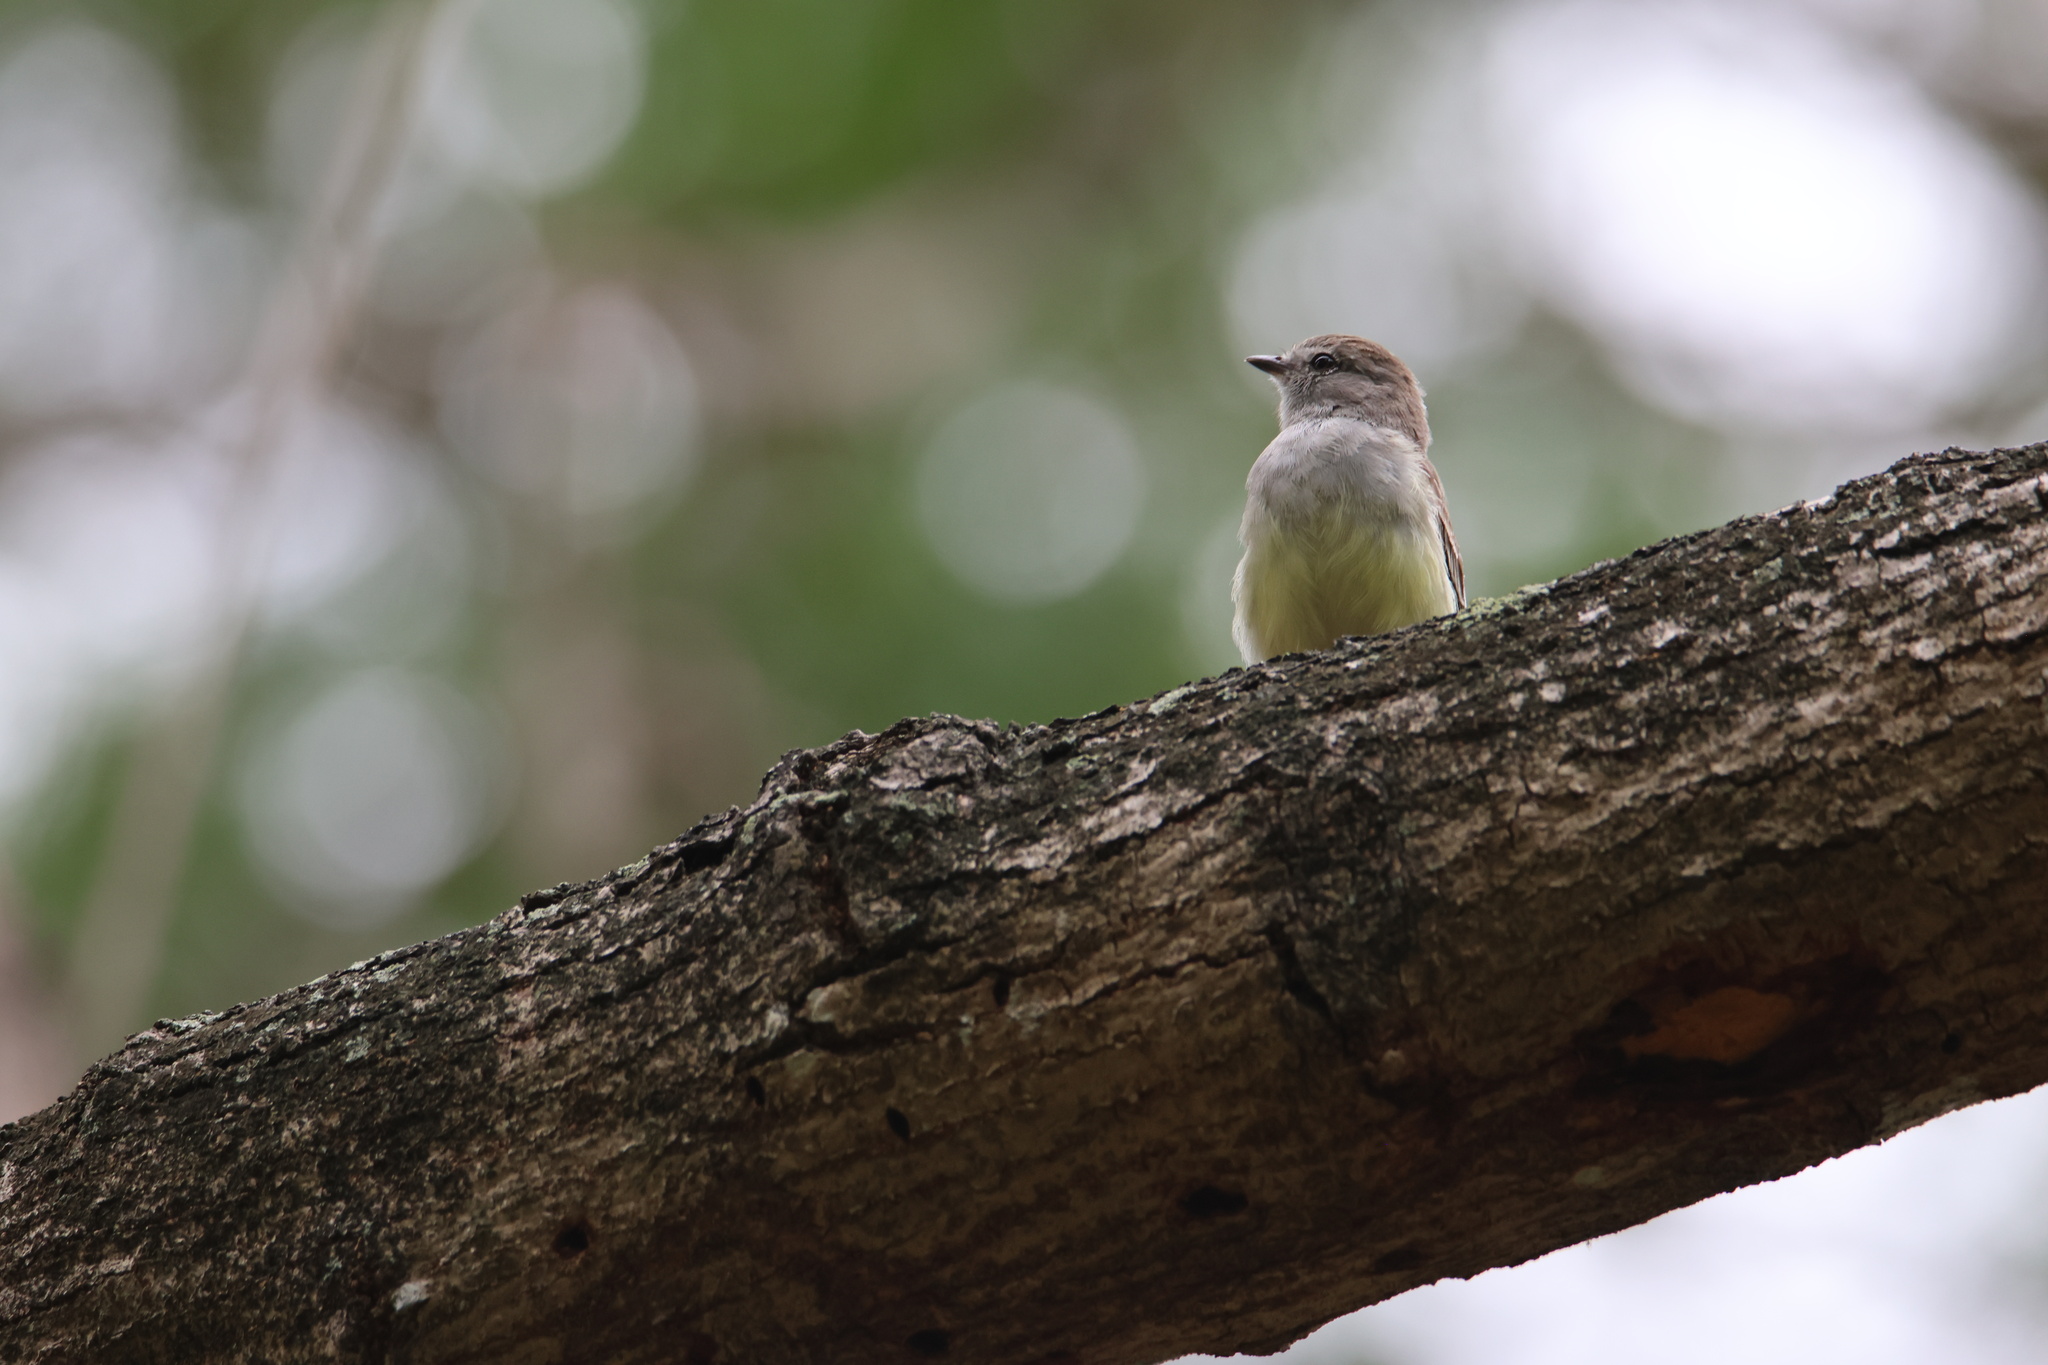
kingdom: Animalia
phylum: Chordata
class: Aves
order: Passeriformes
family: Tyrannidae
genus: Sublegatus
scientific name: Sublegatus arenarum
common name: Northern scrub-flycatcher
